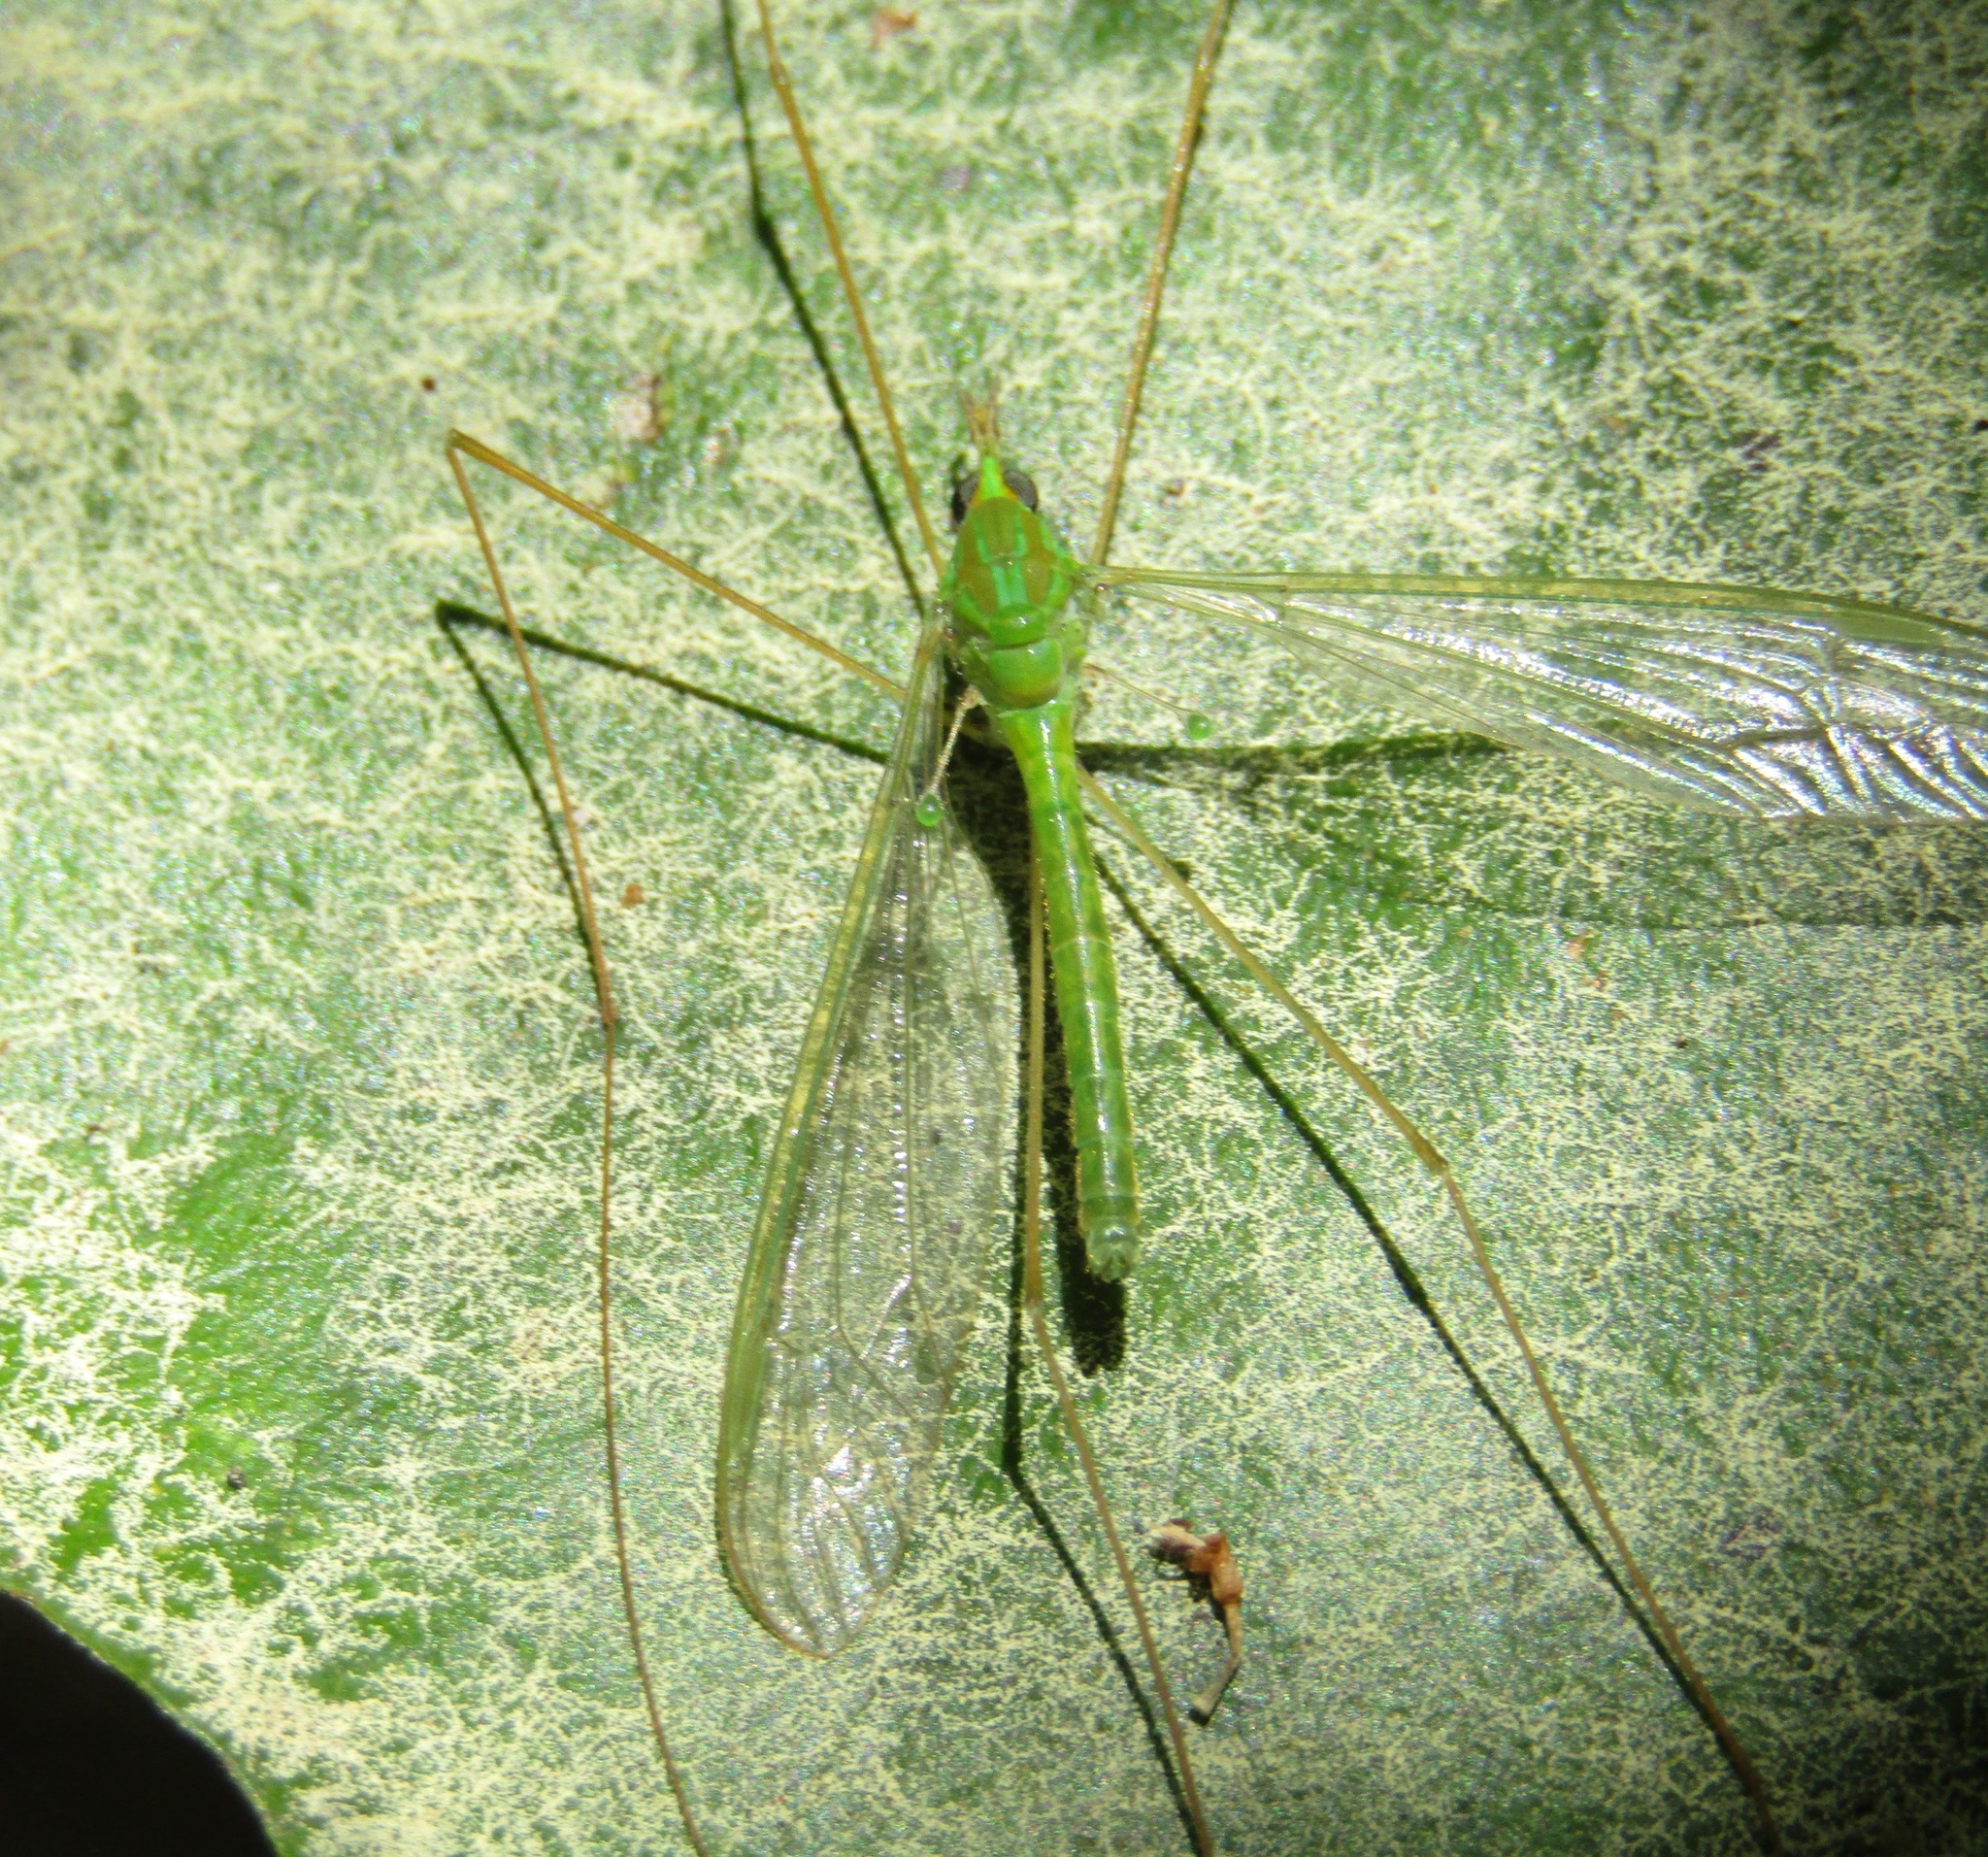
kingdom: Animalia
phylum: Arthropoda
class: Insecta
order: Diptera
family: Tipulidae
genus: Leptotarsus
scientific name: Leptotarsus virescens
